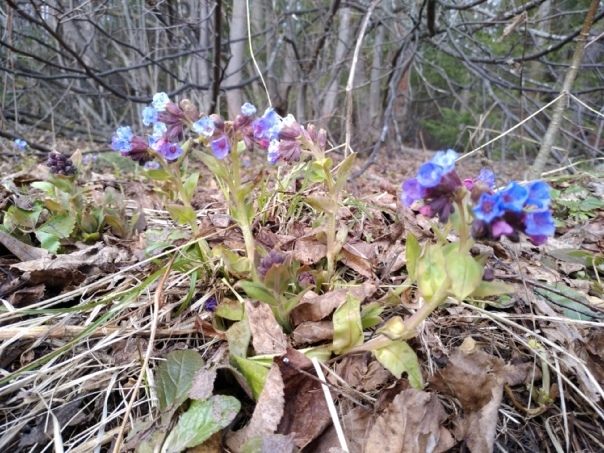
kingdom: Plantae
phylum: Tracheophyta
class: Magnoliopsida
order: Boraginales
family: Boraginaceae
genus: Pulmonaria
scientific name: Pulmonaria mollis
